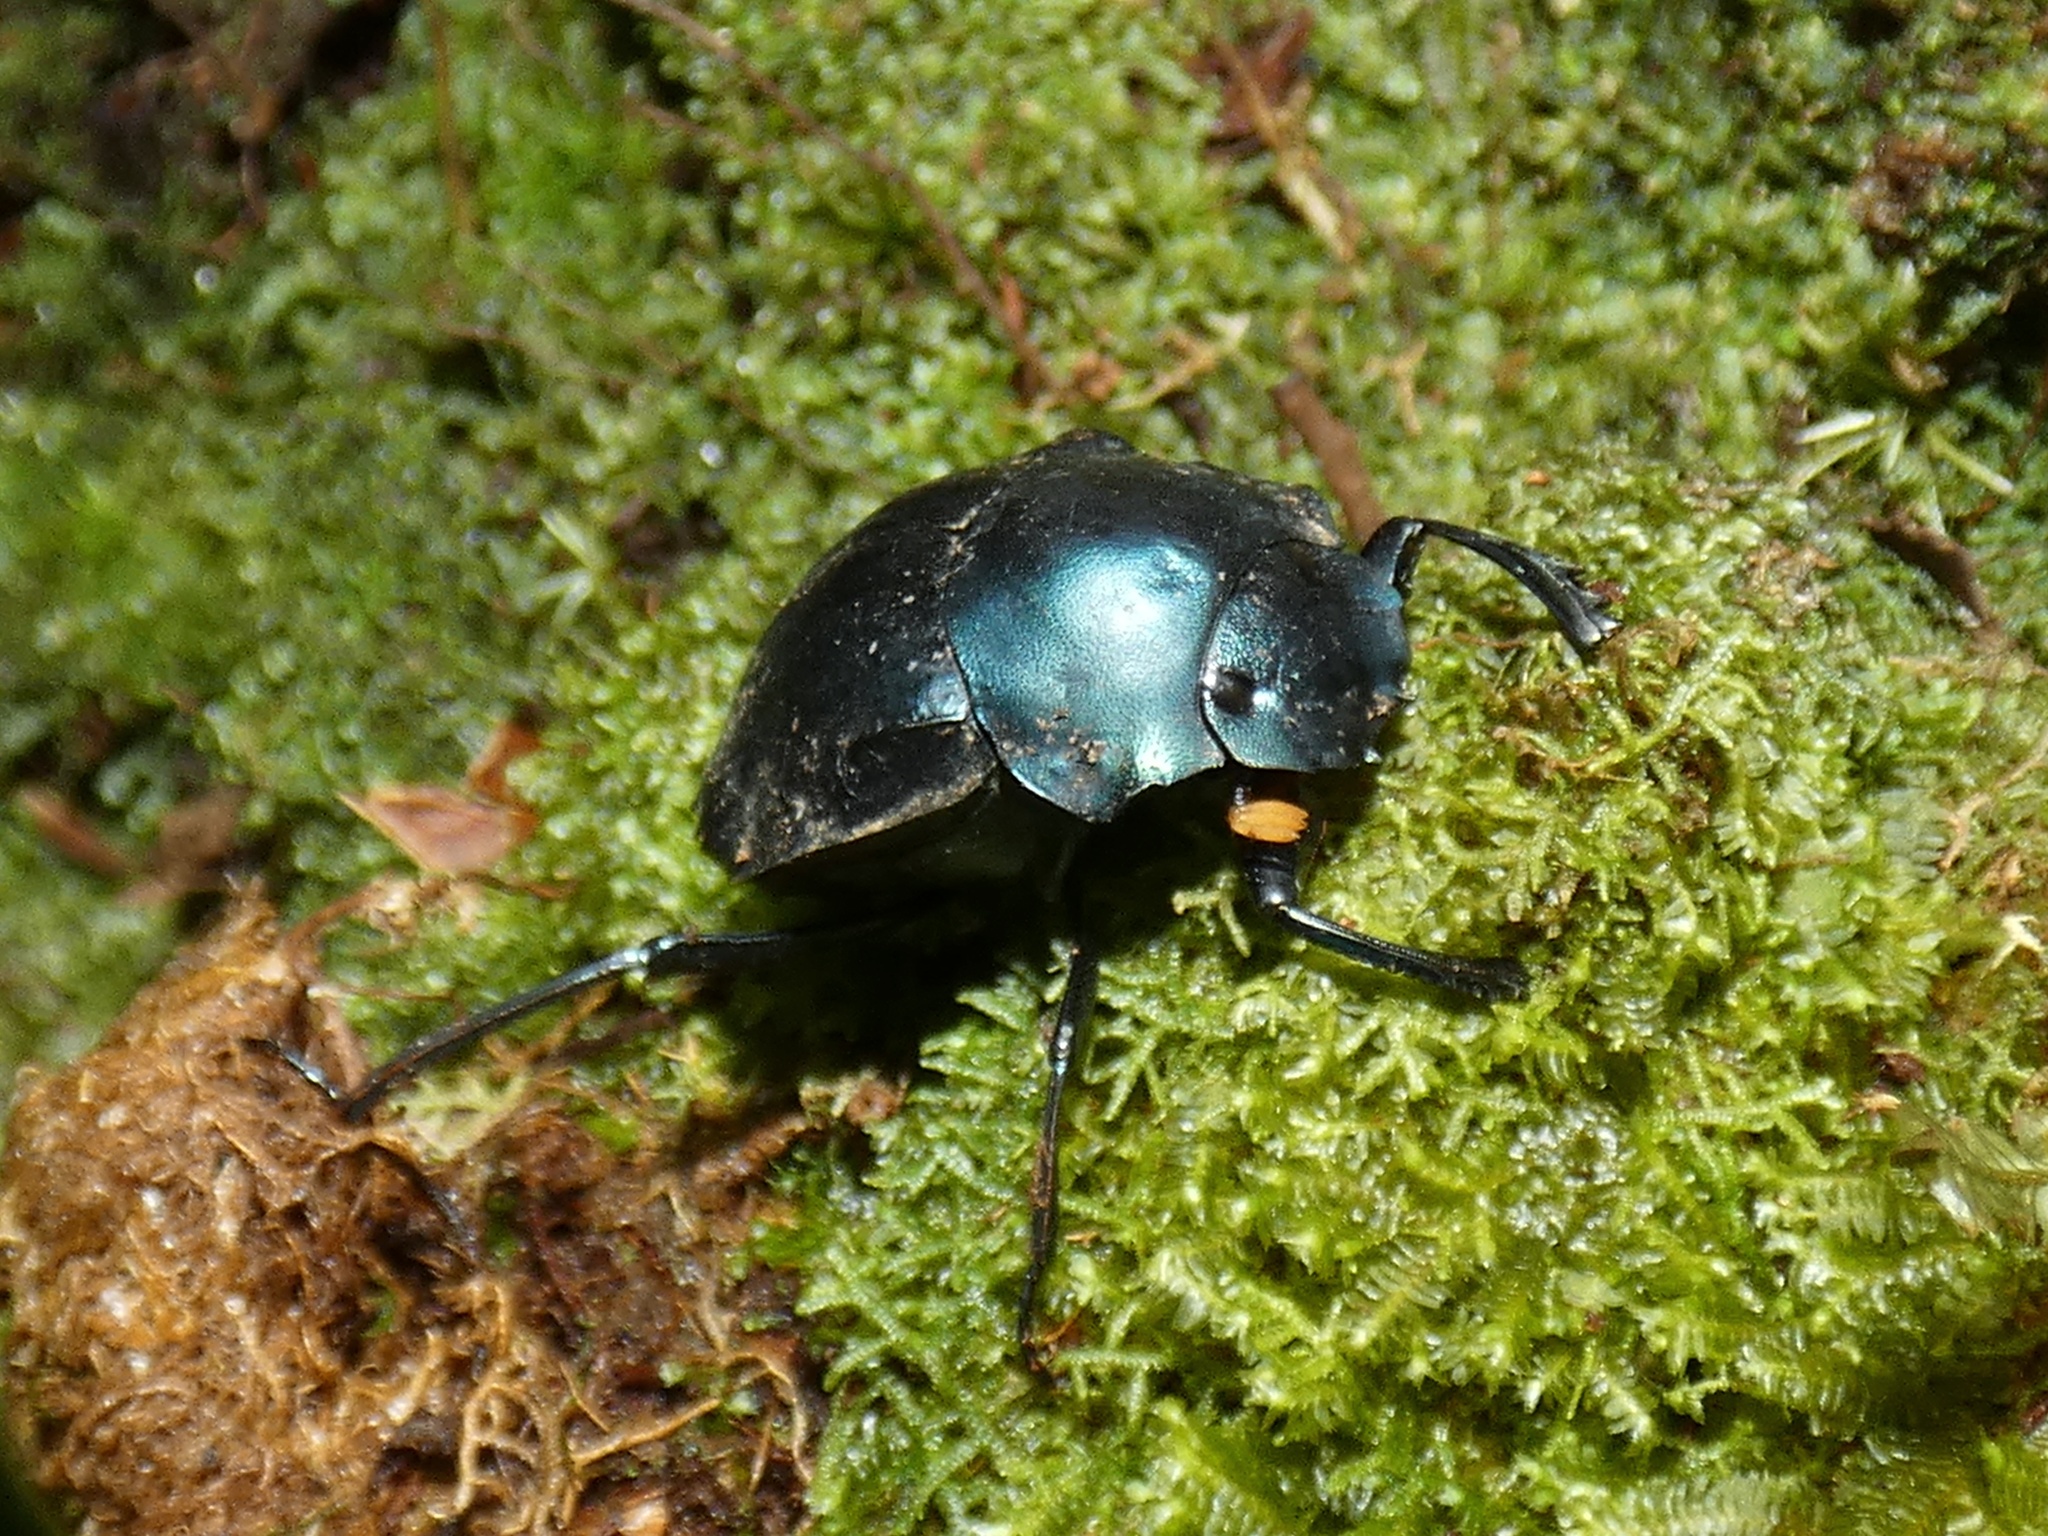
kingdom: Animalia
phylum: Arthropoda
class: Insecta
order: Coleoptera
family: Scarabaeidae
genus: Deltochilum
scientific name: Deltochilum burmeisteri
